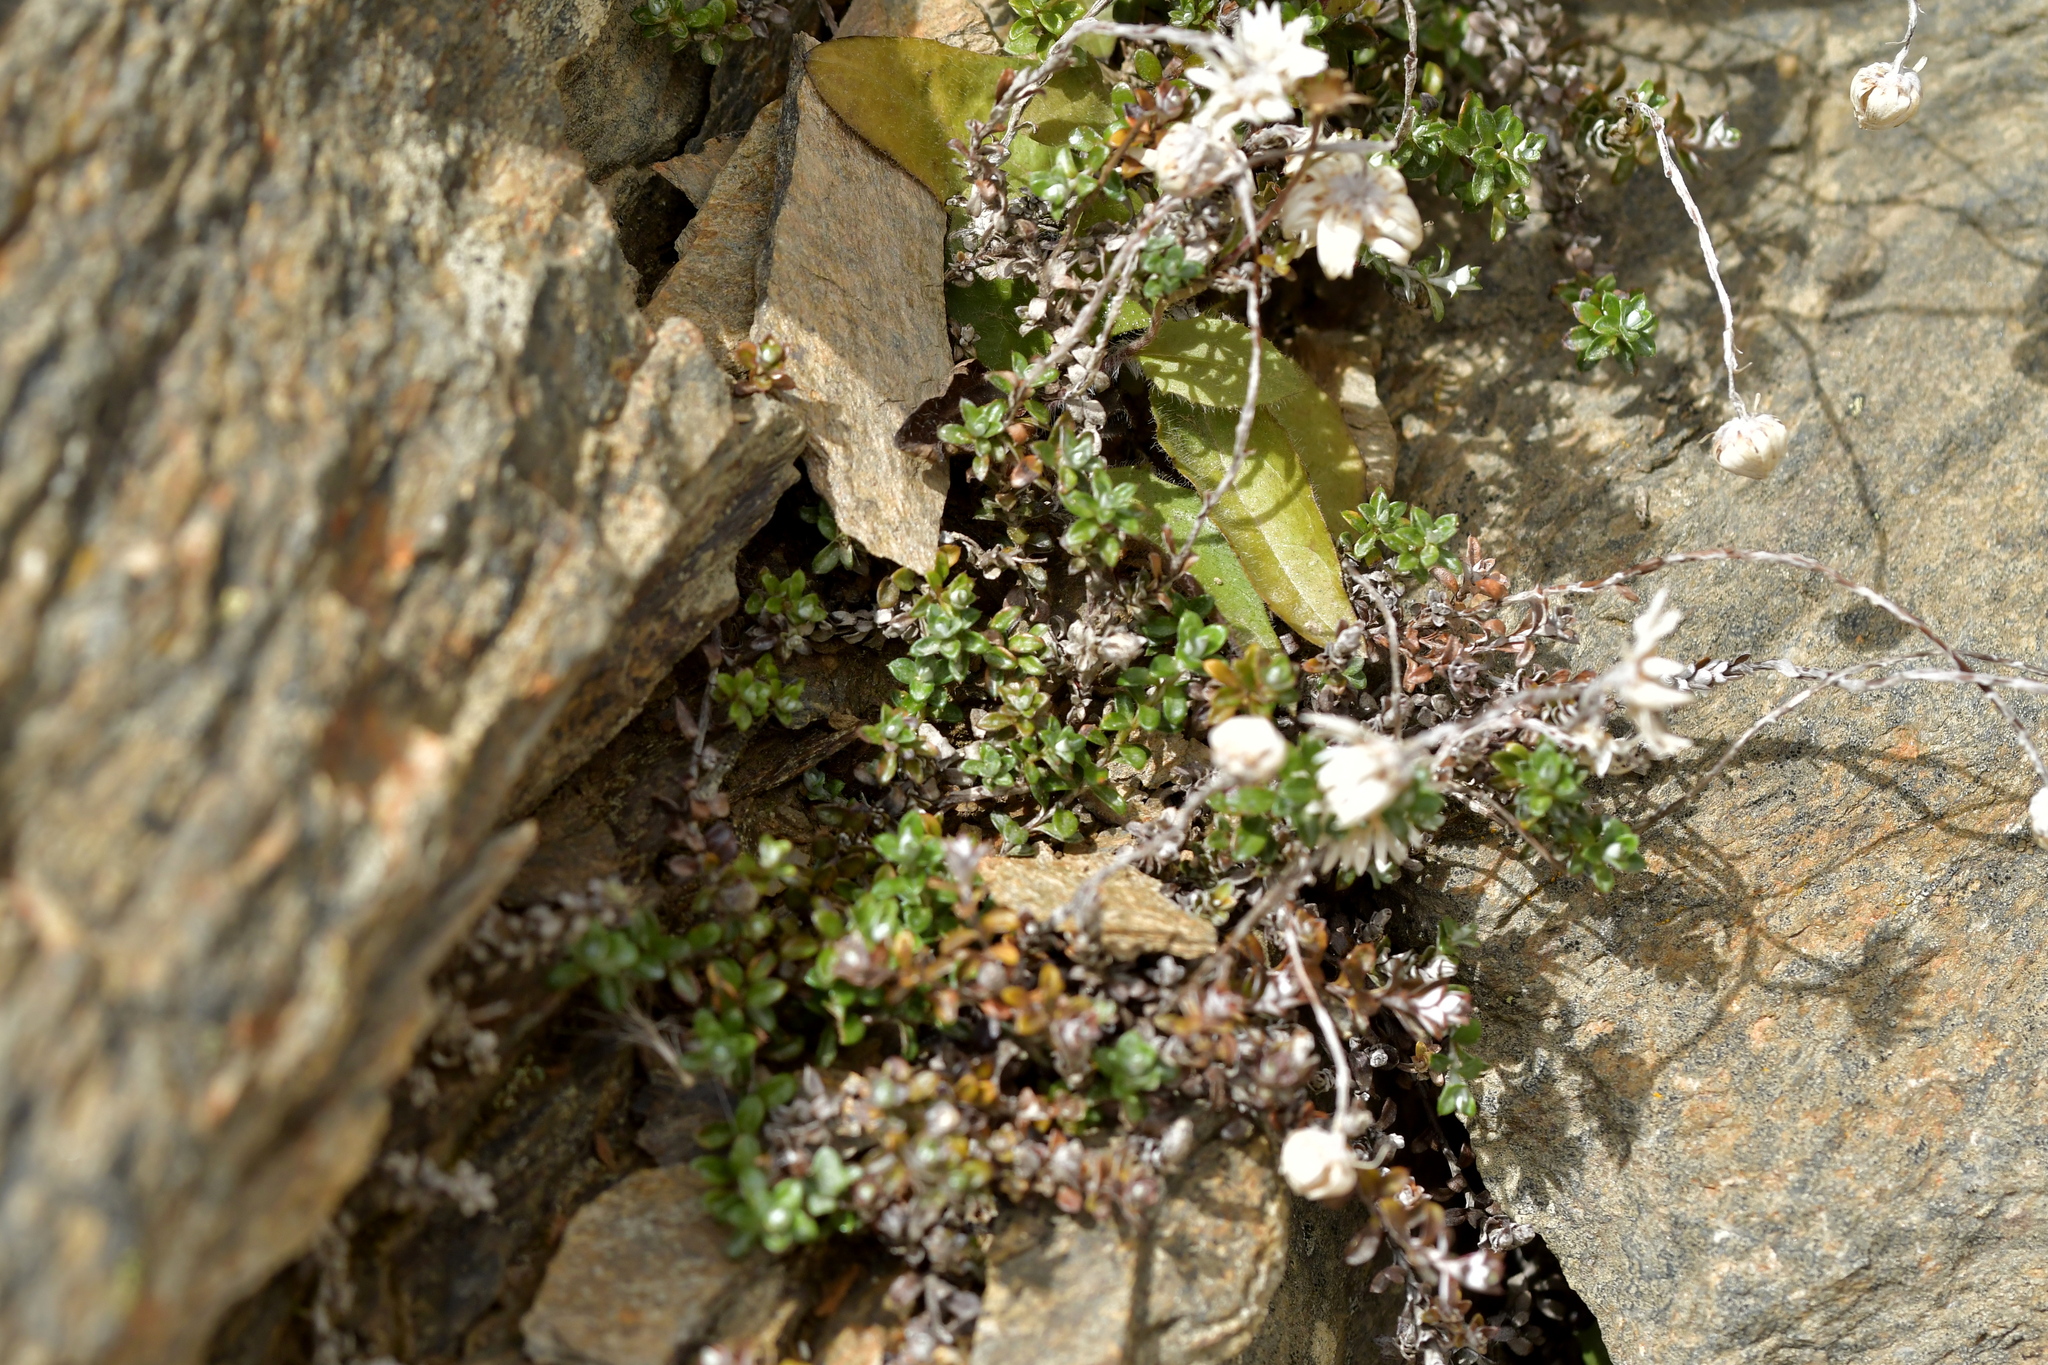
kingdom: Plantae
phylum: Tracheophyta
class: Magnoliopsida
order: Asterales
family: Asteraceae
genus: Anaphalioides
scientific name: Anaphalioides bellidioides
